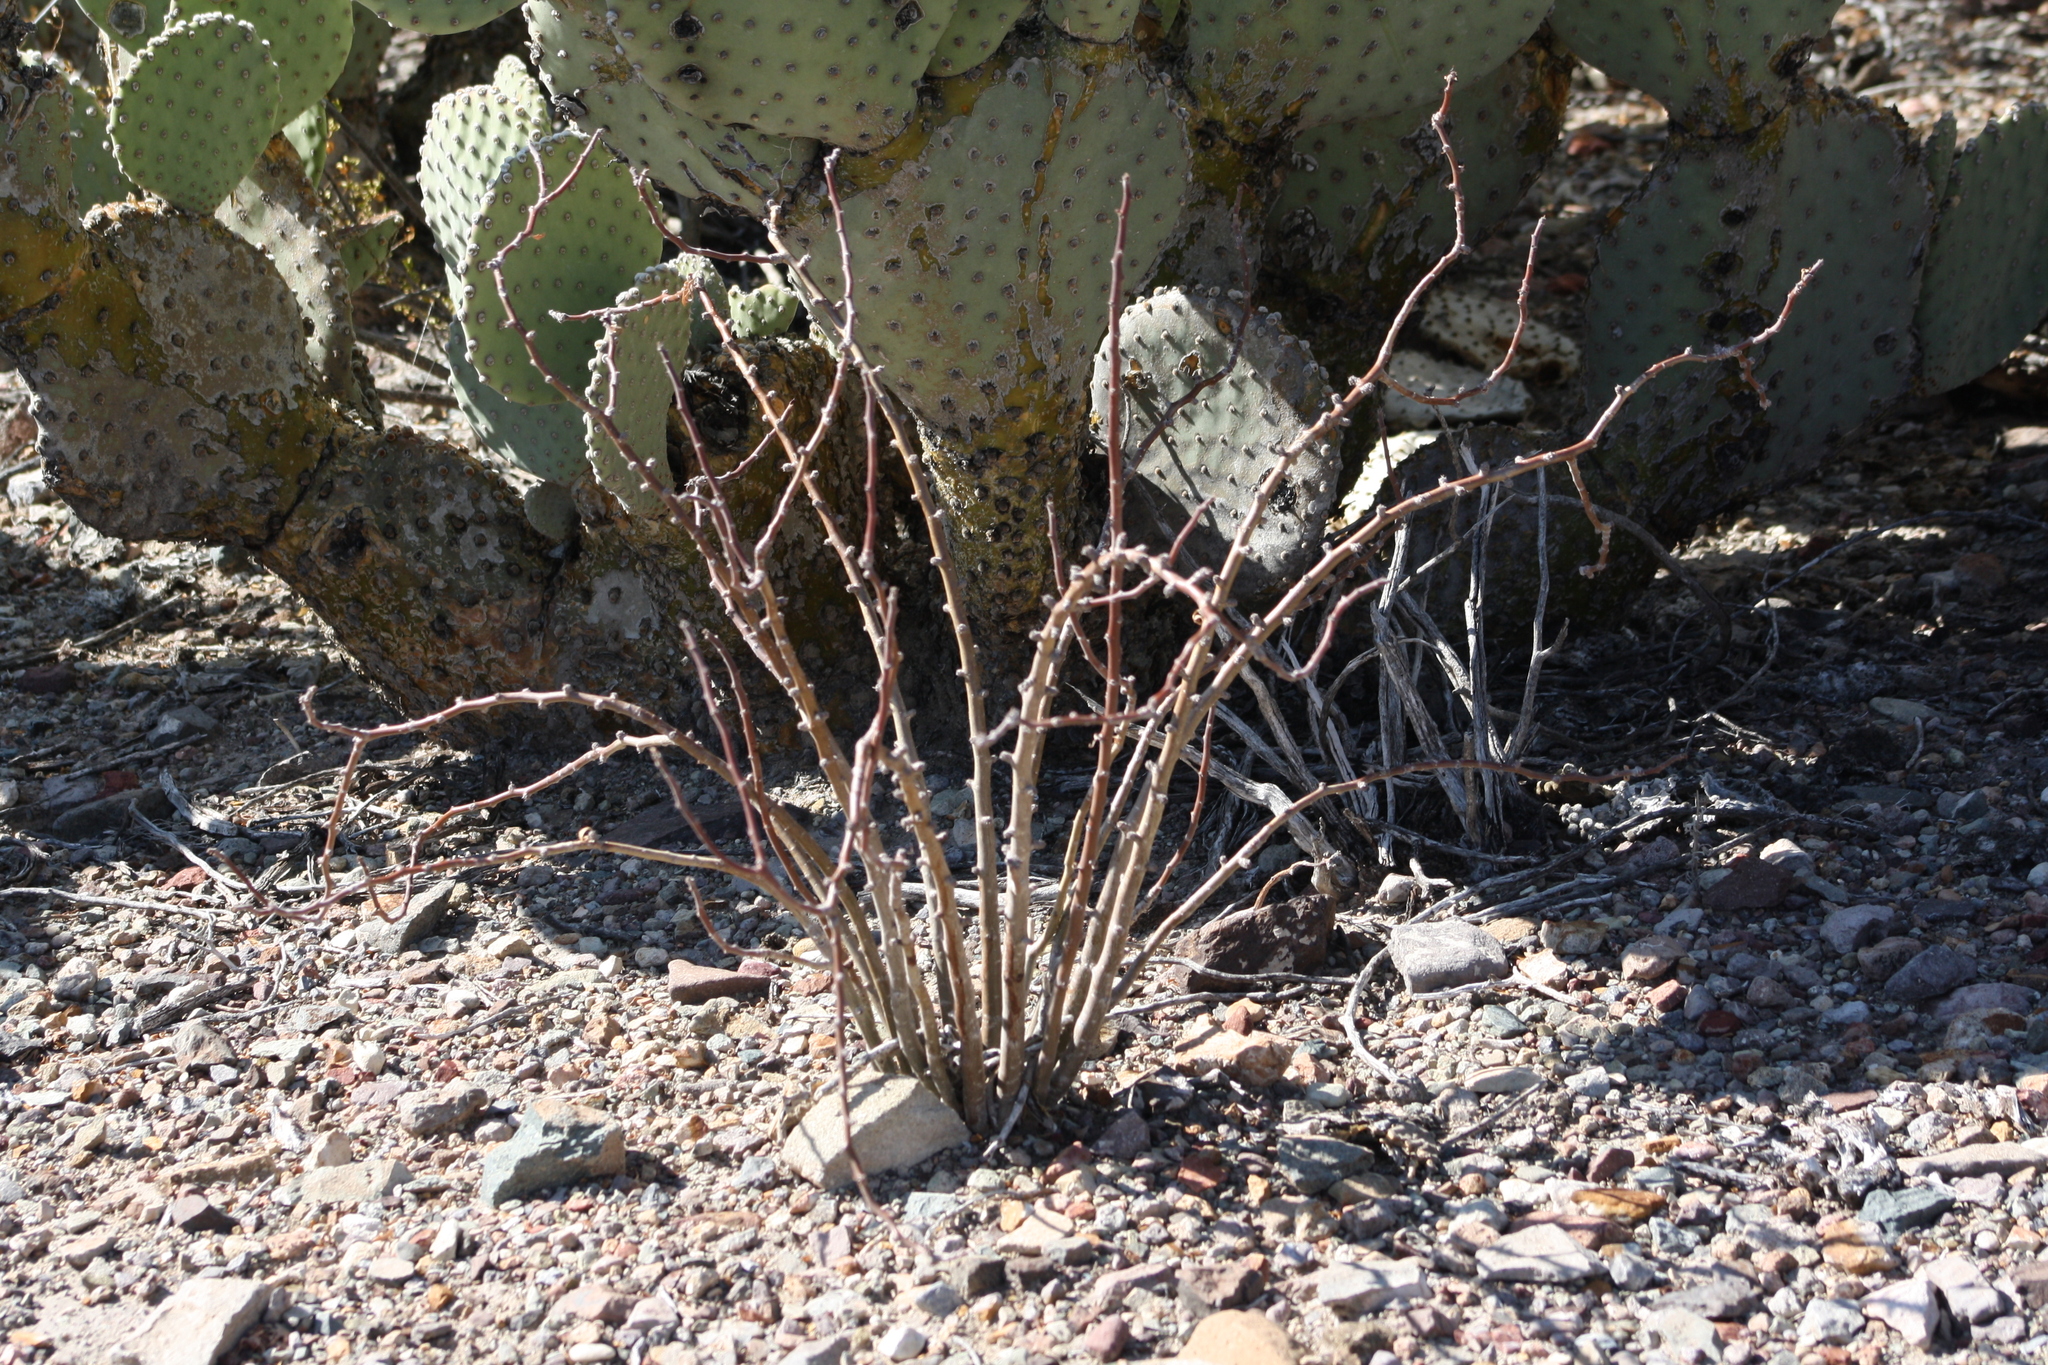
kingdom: Plantae
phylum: Tracheophyta
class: Magnoliopsida
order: Malpighiales
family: Euphorbiaceae
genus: Jatropha
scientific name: Jatropha dioica
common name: Leatherstem
